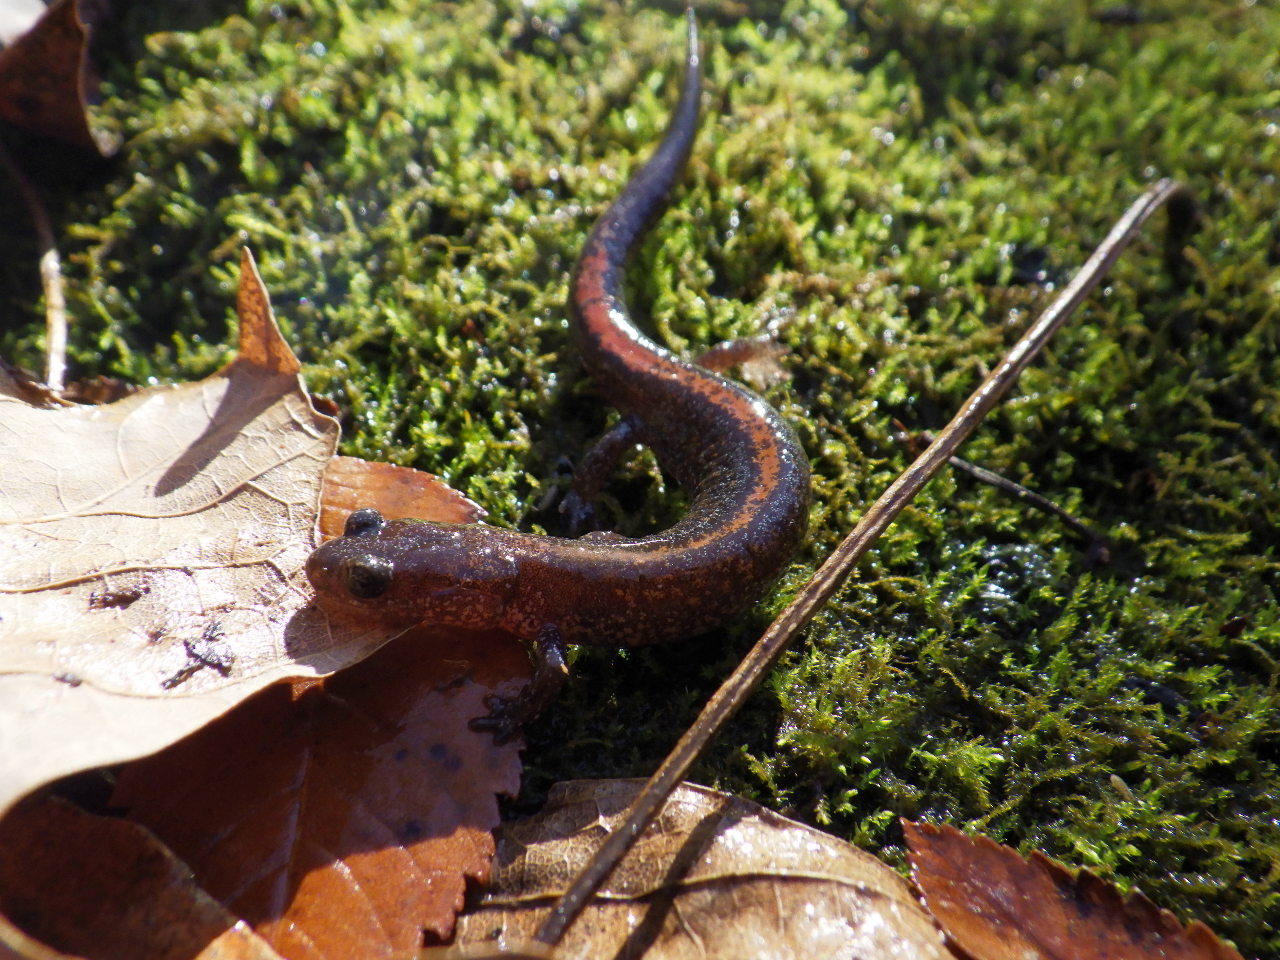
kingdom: Animalia
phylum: Chordata
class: Amphibia
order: Caudata
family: Plethodontidae
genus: Plethodon
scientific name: Plethodon angusticlavius
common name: Ozark zigzag salamander
